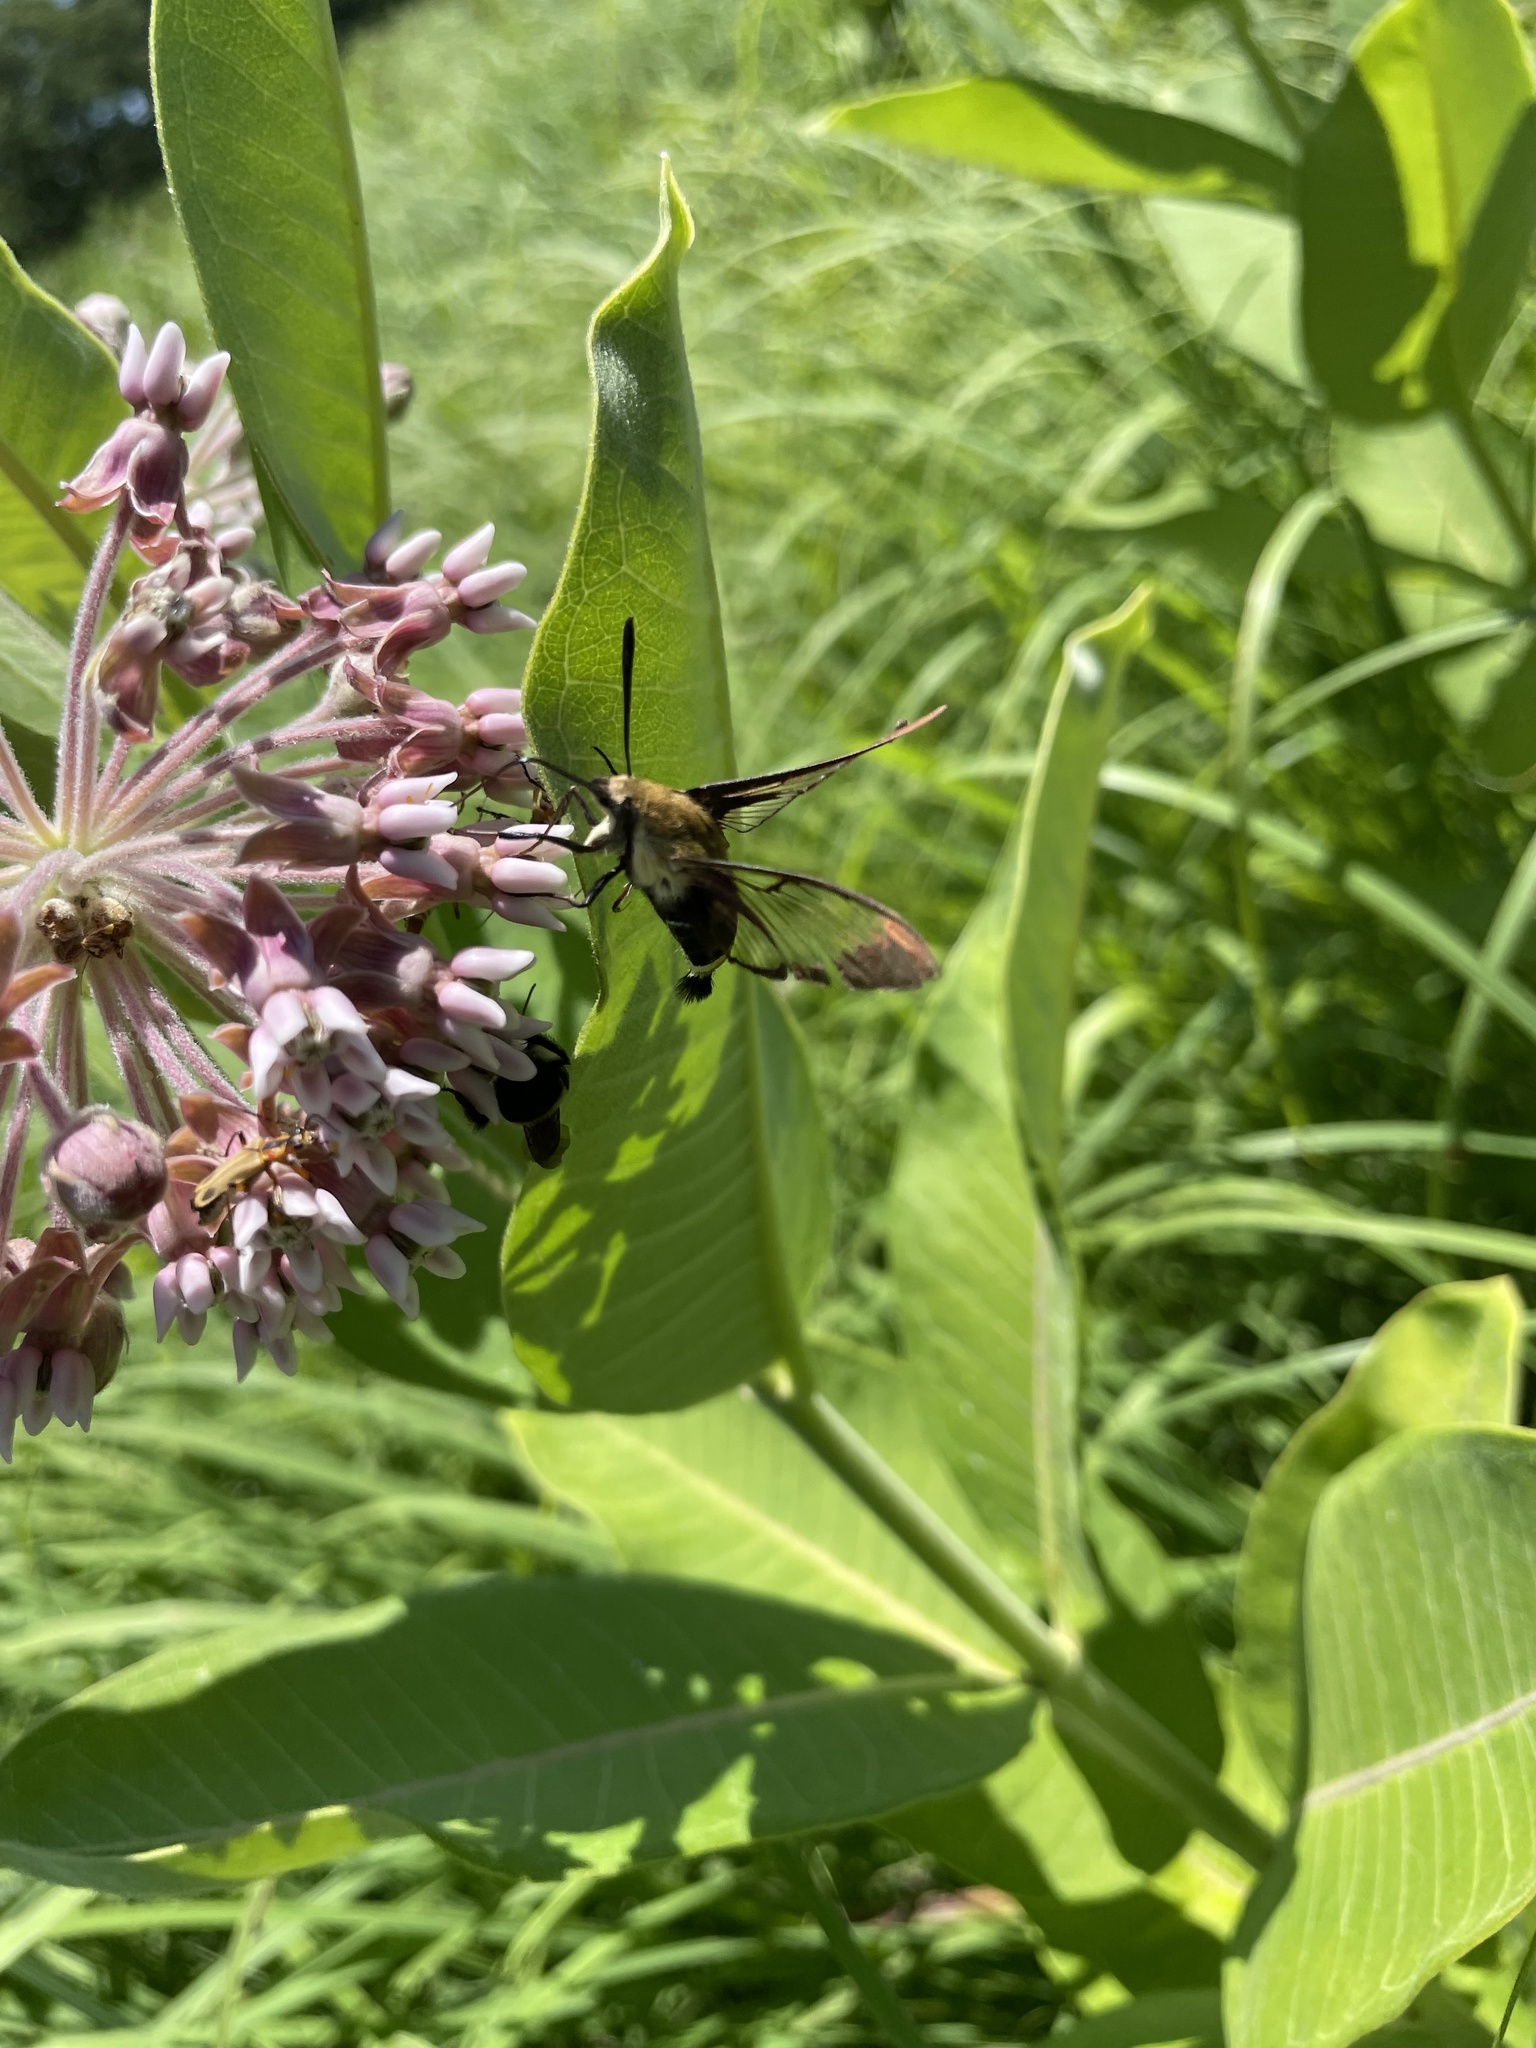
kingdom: Animalia
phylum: Arthropoda
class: Insecta
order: Lepidoptera
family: Sphingidae
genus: Hemaris
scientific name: Hemaris diffinis
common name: Bumblebee moth
